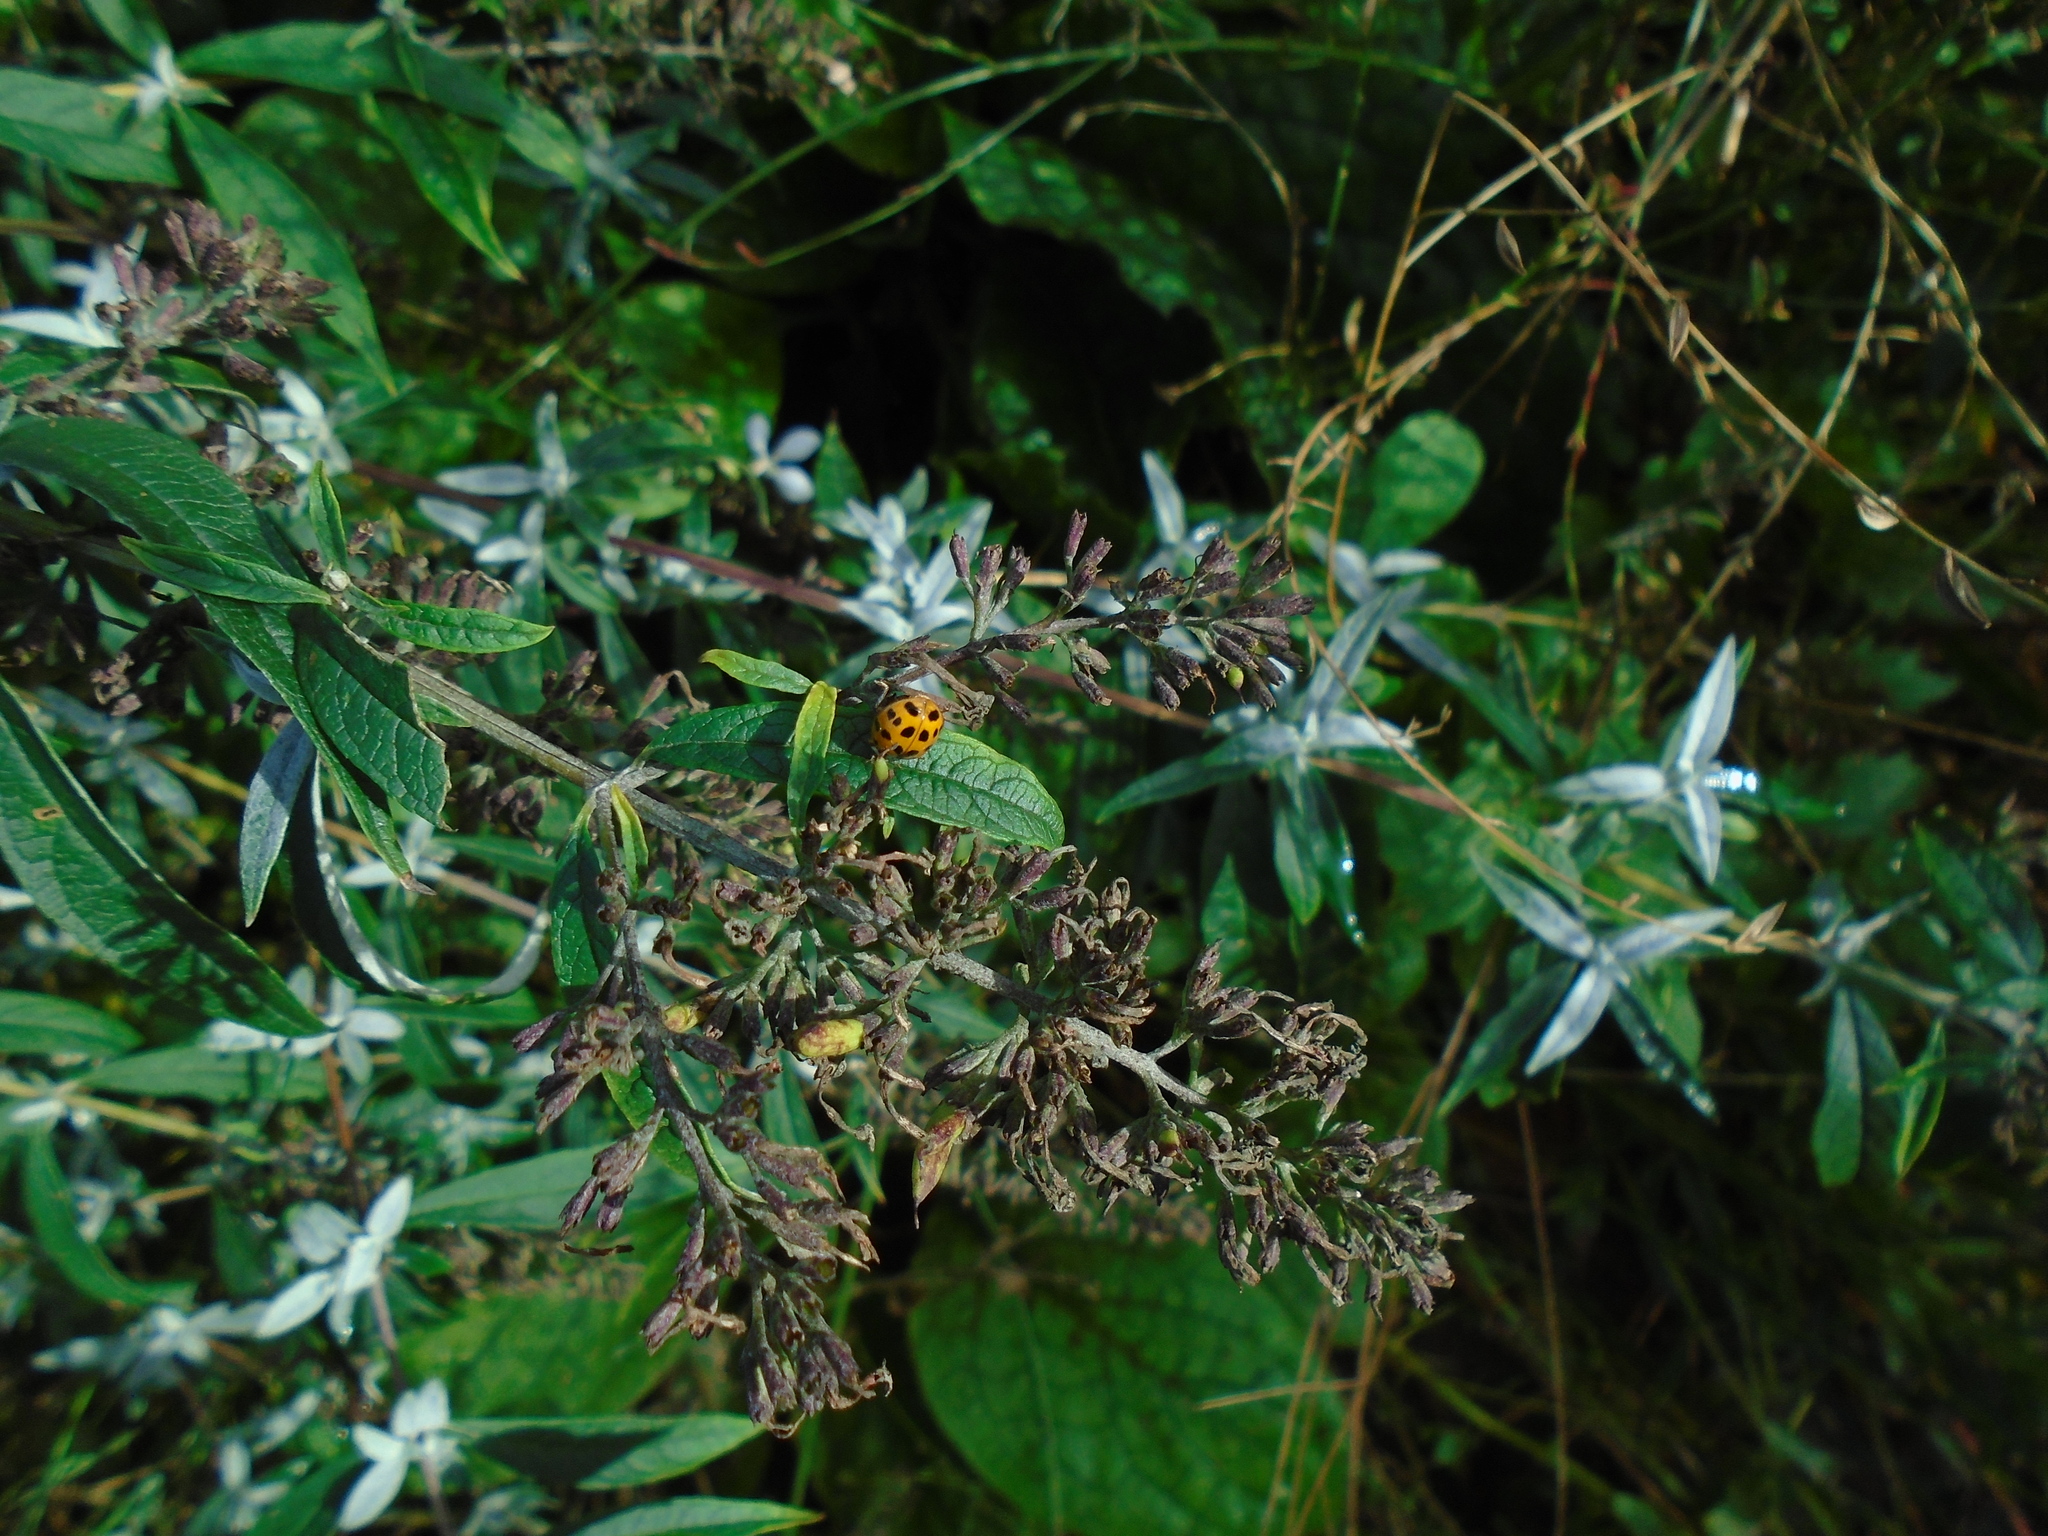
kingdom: Animalia
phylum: Arthropoda
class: Insecta
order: Coleoptera
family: Coccinellidae
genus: Harmonia
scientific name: Harmonia axyridis
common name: Harlequin ladybird
